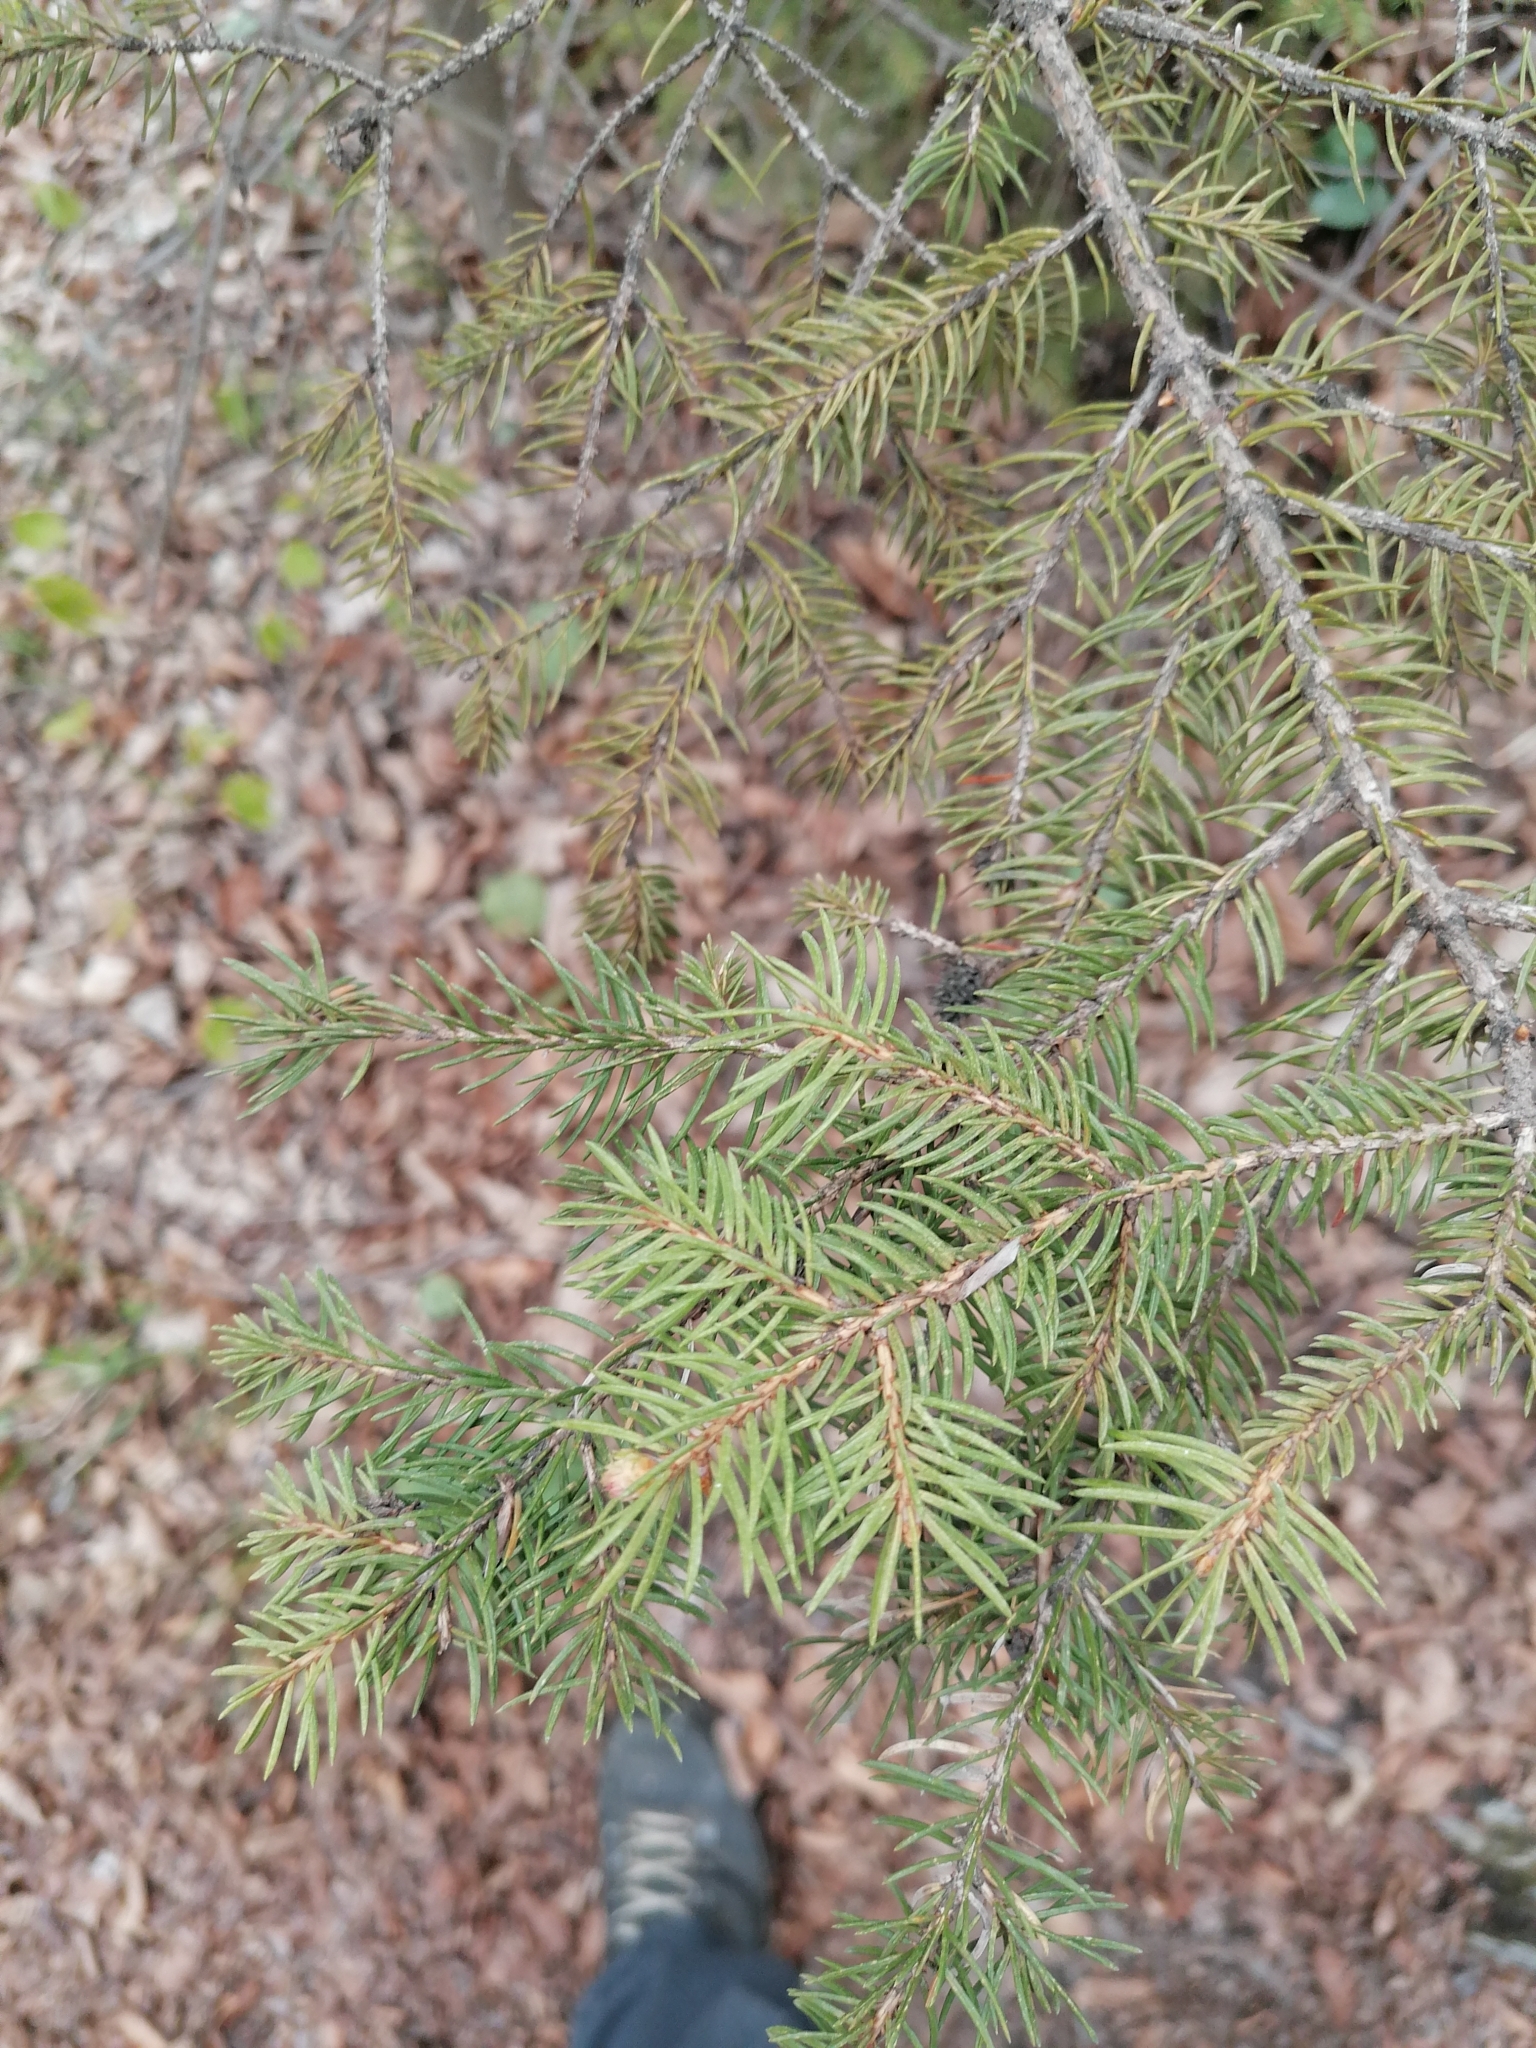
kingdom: Plantae
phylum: Tracheophyta
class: Pinopsida
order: Pinales
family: Pinaceae
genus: Picea
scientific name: Picea abies
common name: Norway spruce
